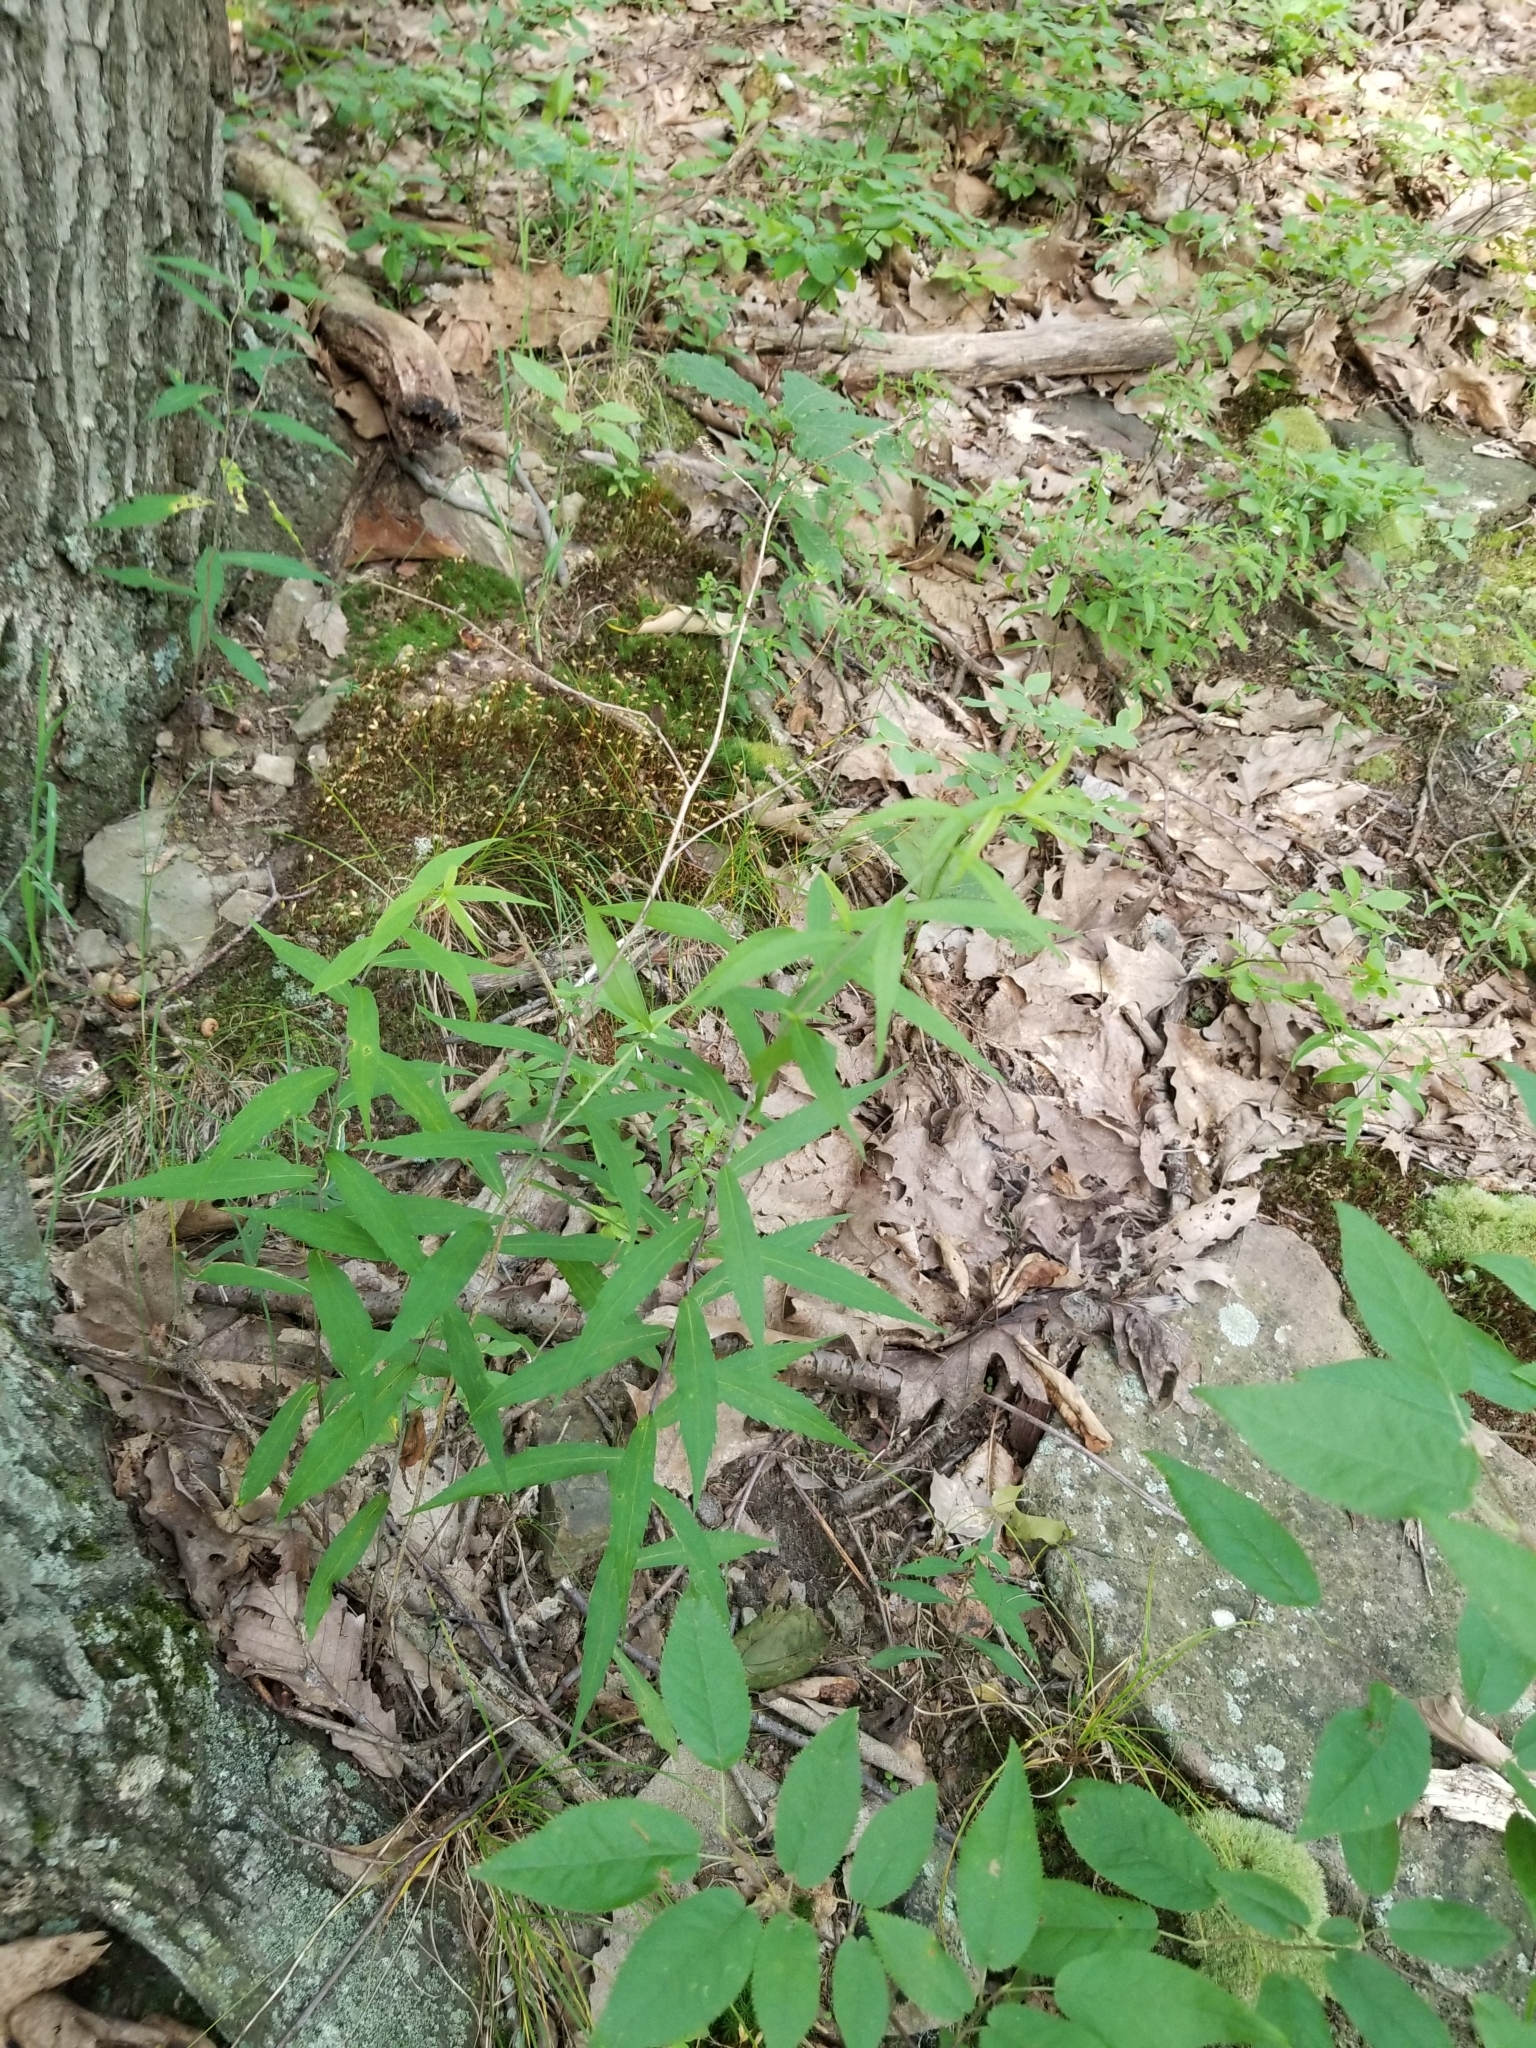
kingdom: Plantae
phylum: Tracheophyta
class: Magnoliopsida
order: Asterales
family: Asteraceae
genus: Solidago
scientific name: Solidago caesia
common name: Woodland goldenrod
